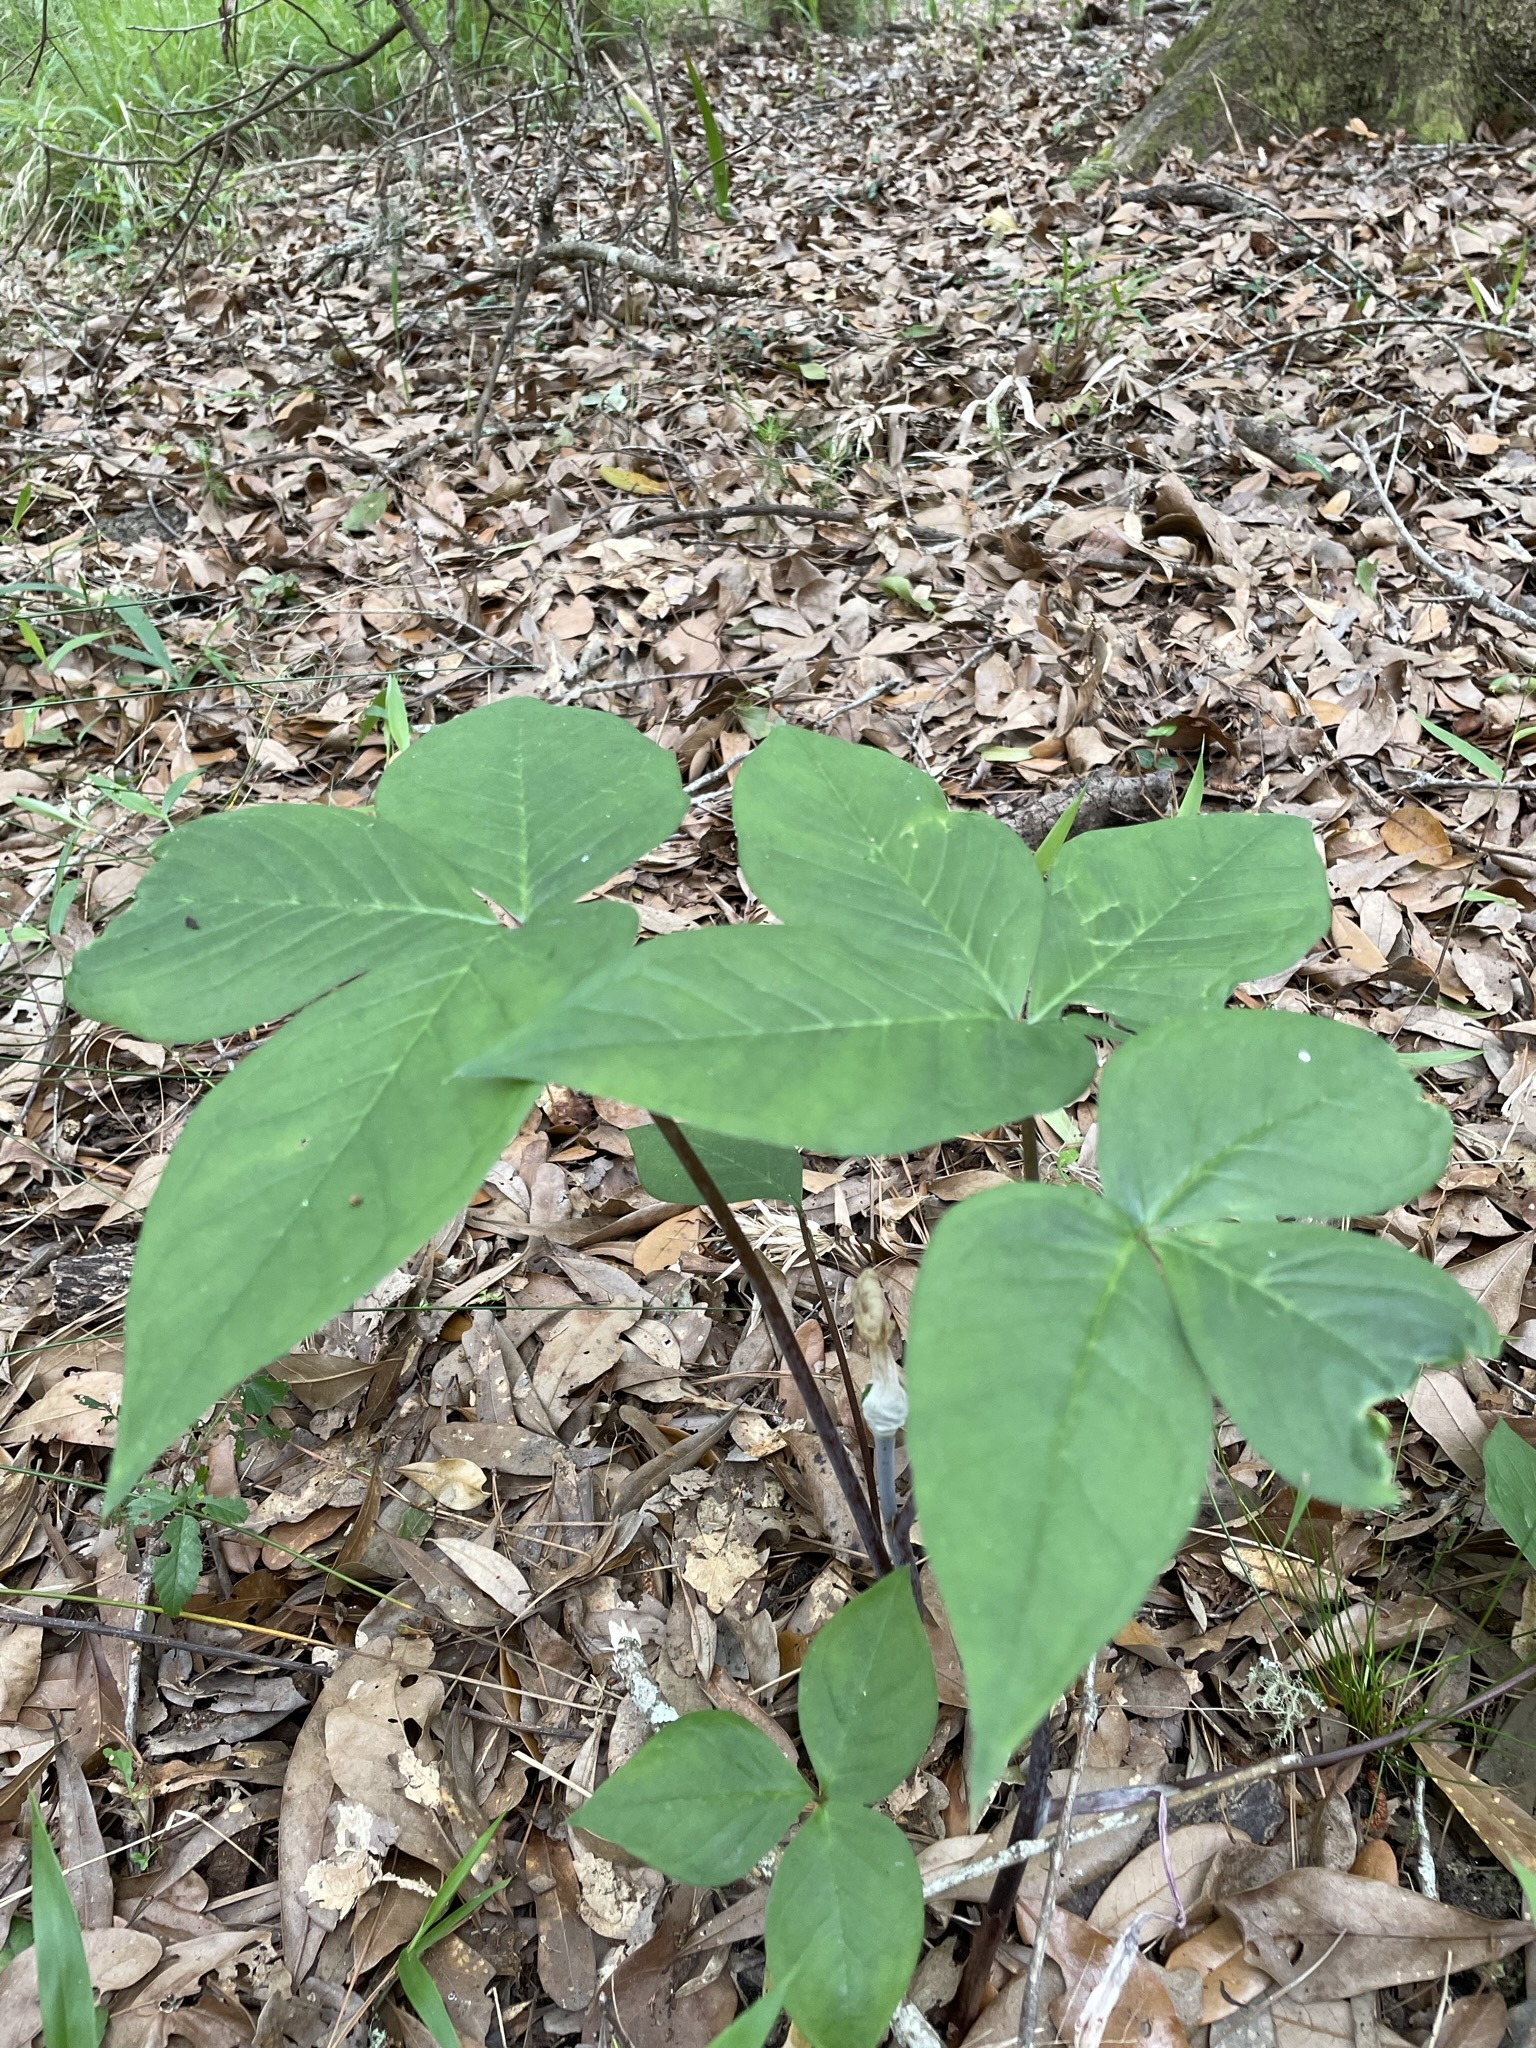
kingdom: Plantae
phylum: Tracheophyta
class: Liliopsida
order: Alismatales
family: Araceae
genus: Arisaema
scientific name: Arisaema triphyllum
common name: Jack-in-the-pulpit
